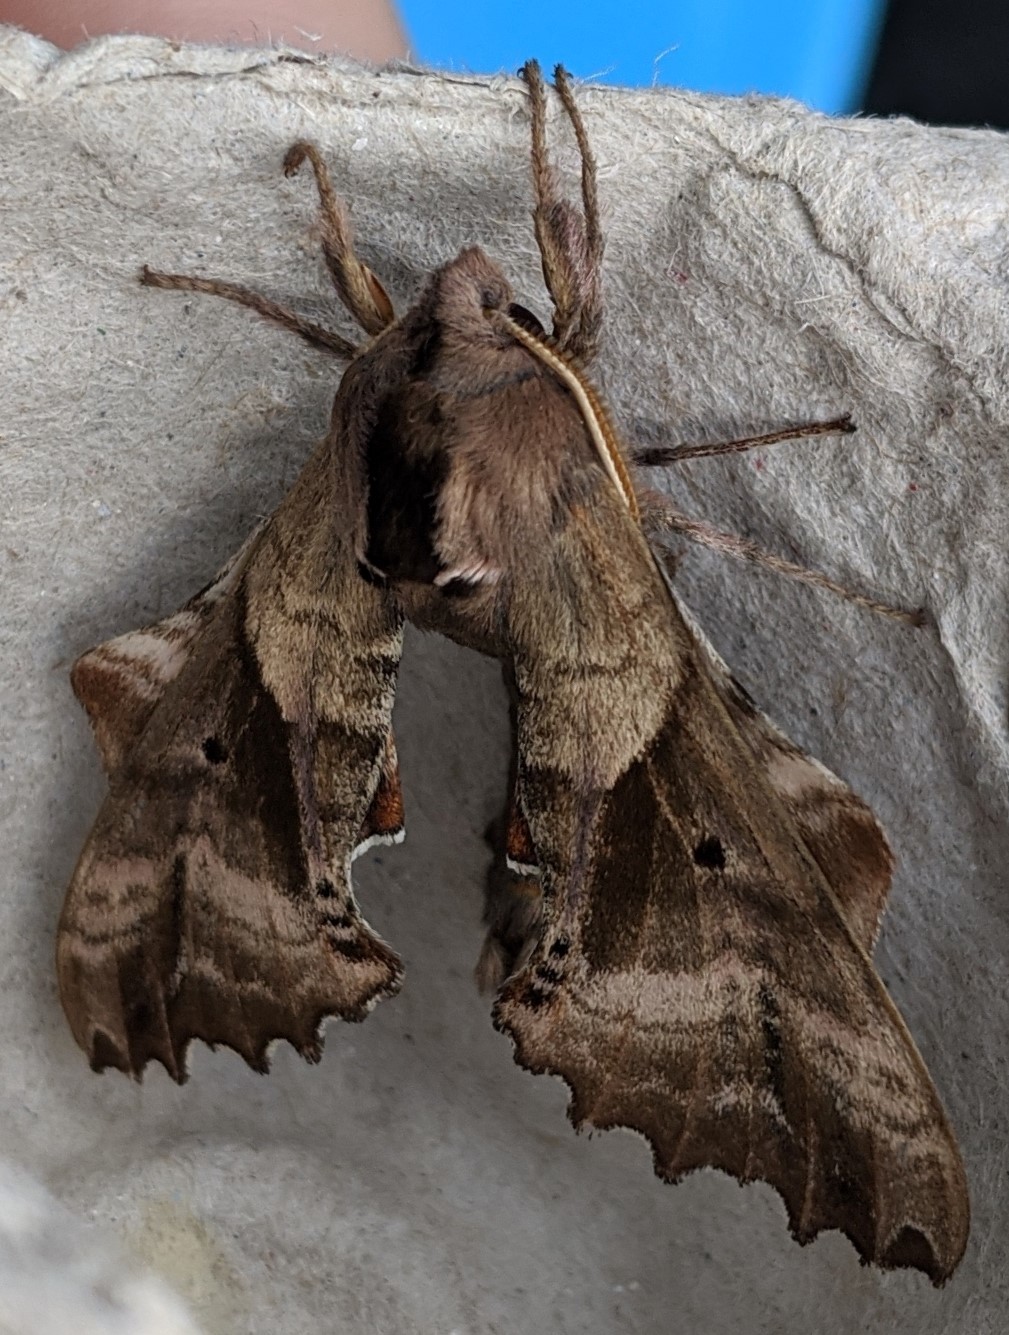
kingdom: Animalia
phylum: Arthropoda
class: Insecta
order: Lepidoptera
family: Sphingidae
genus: Paonias
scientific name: Paonias excaecata
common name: Blind-eyed sphinx
